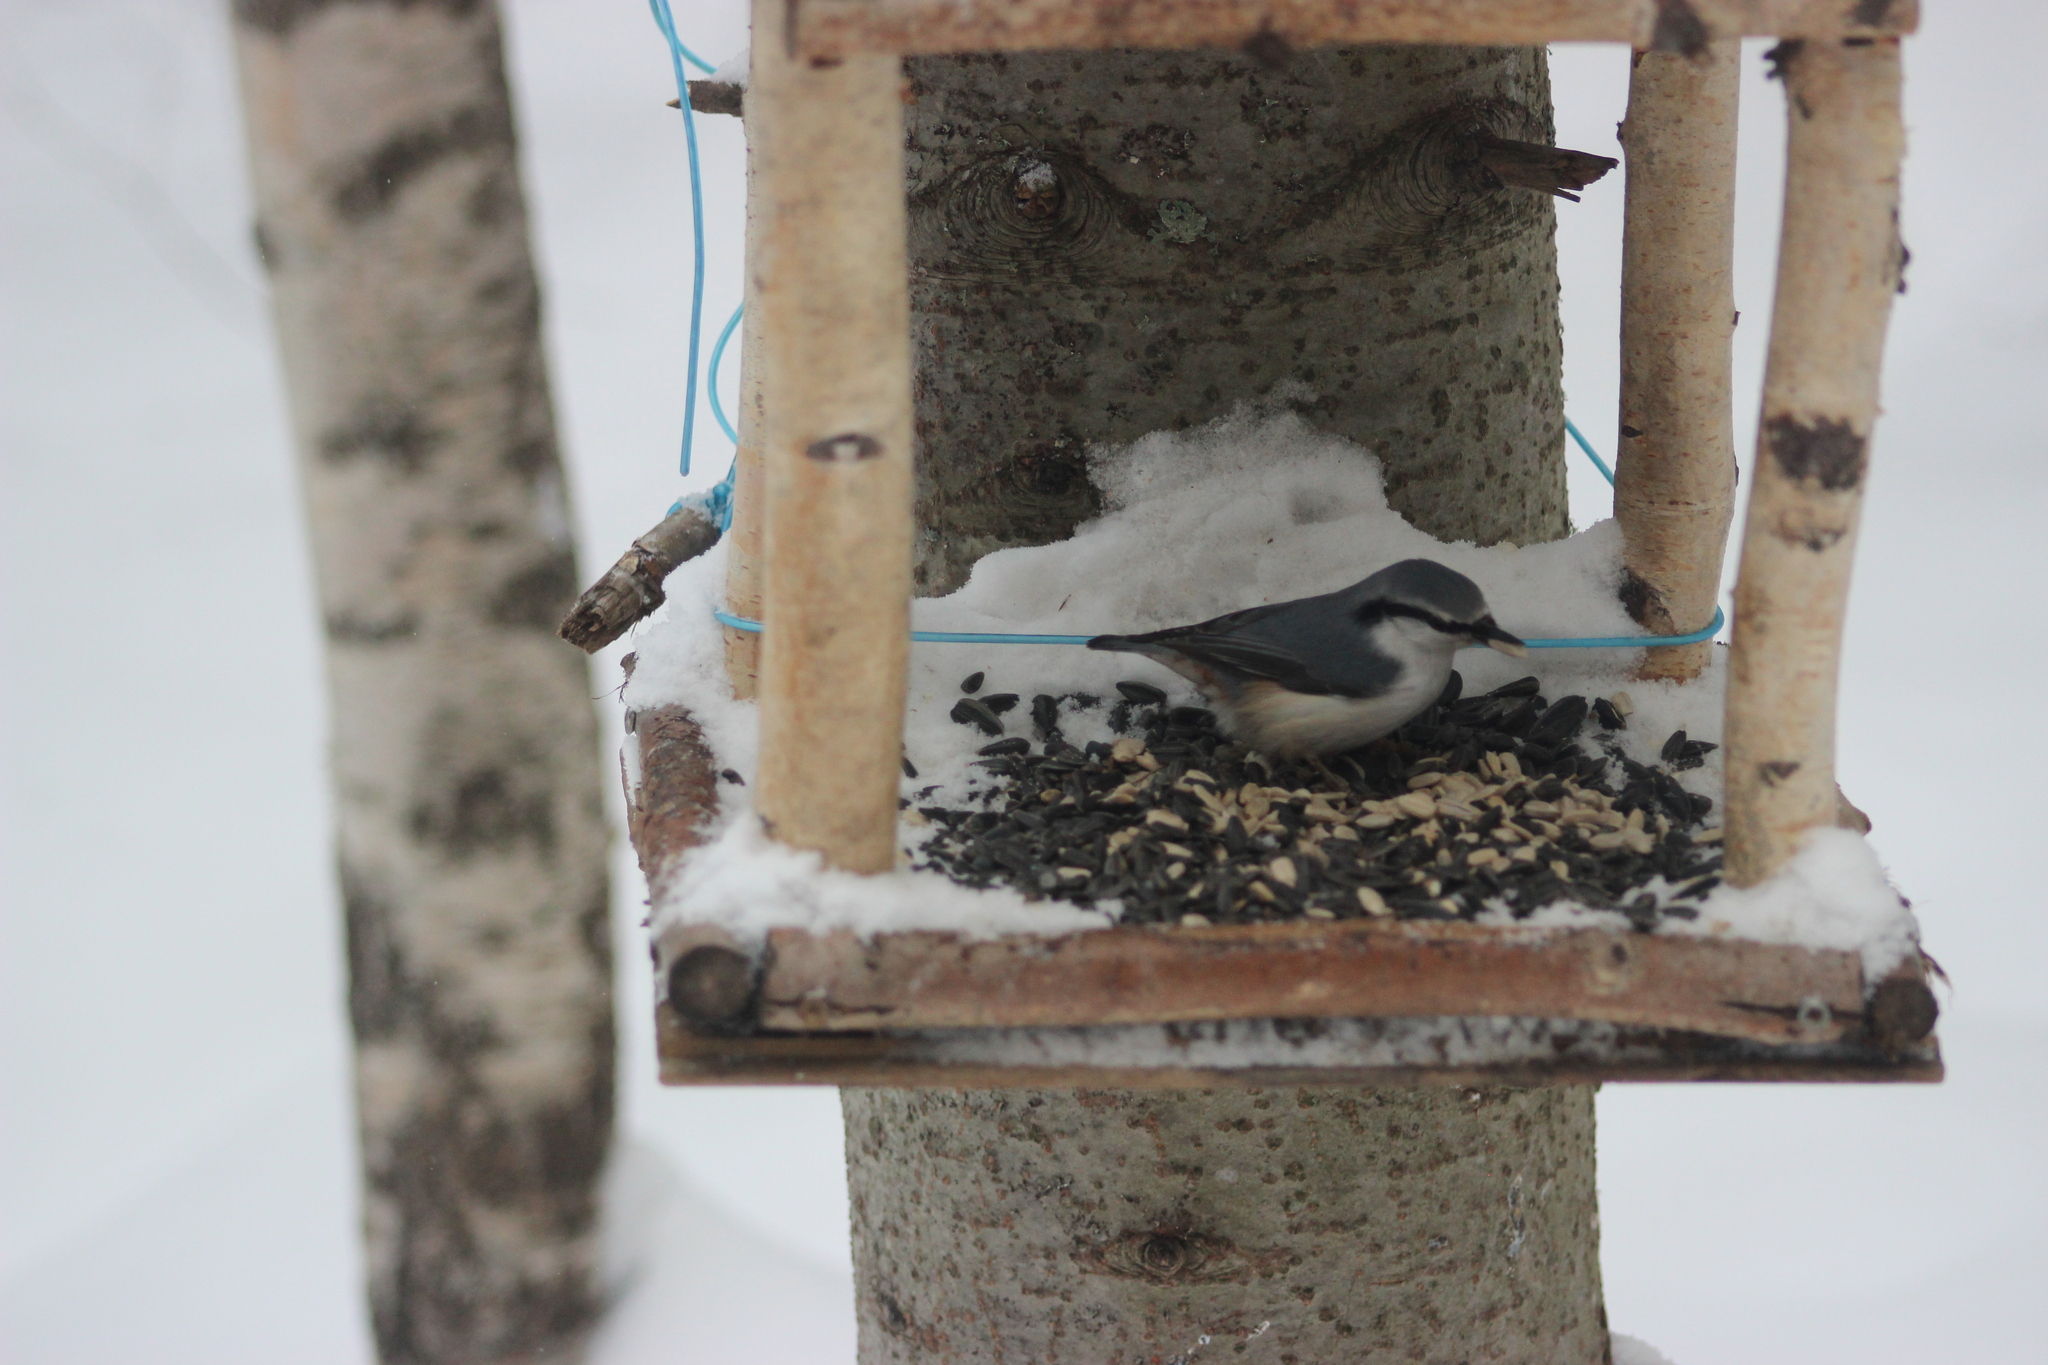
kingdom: Animalia
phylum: Chordata
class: Aves
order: Passeriformes
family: Sittidae
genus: Sitta
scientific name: Sitta europaea
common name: Eurasian nuthatch
